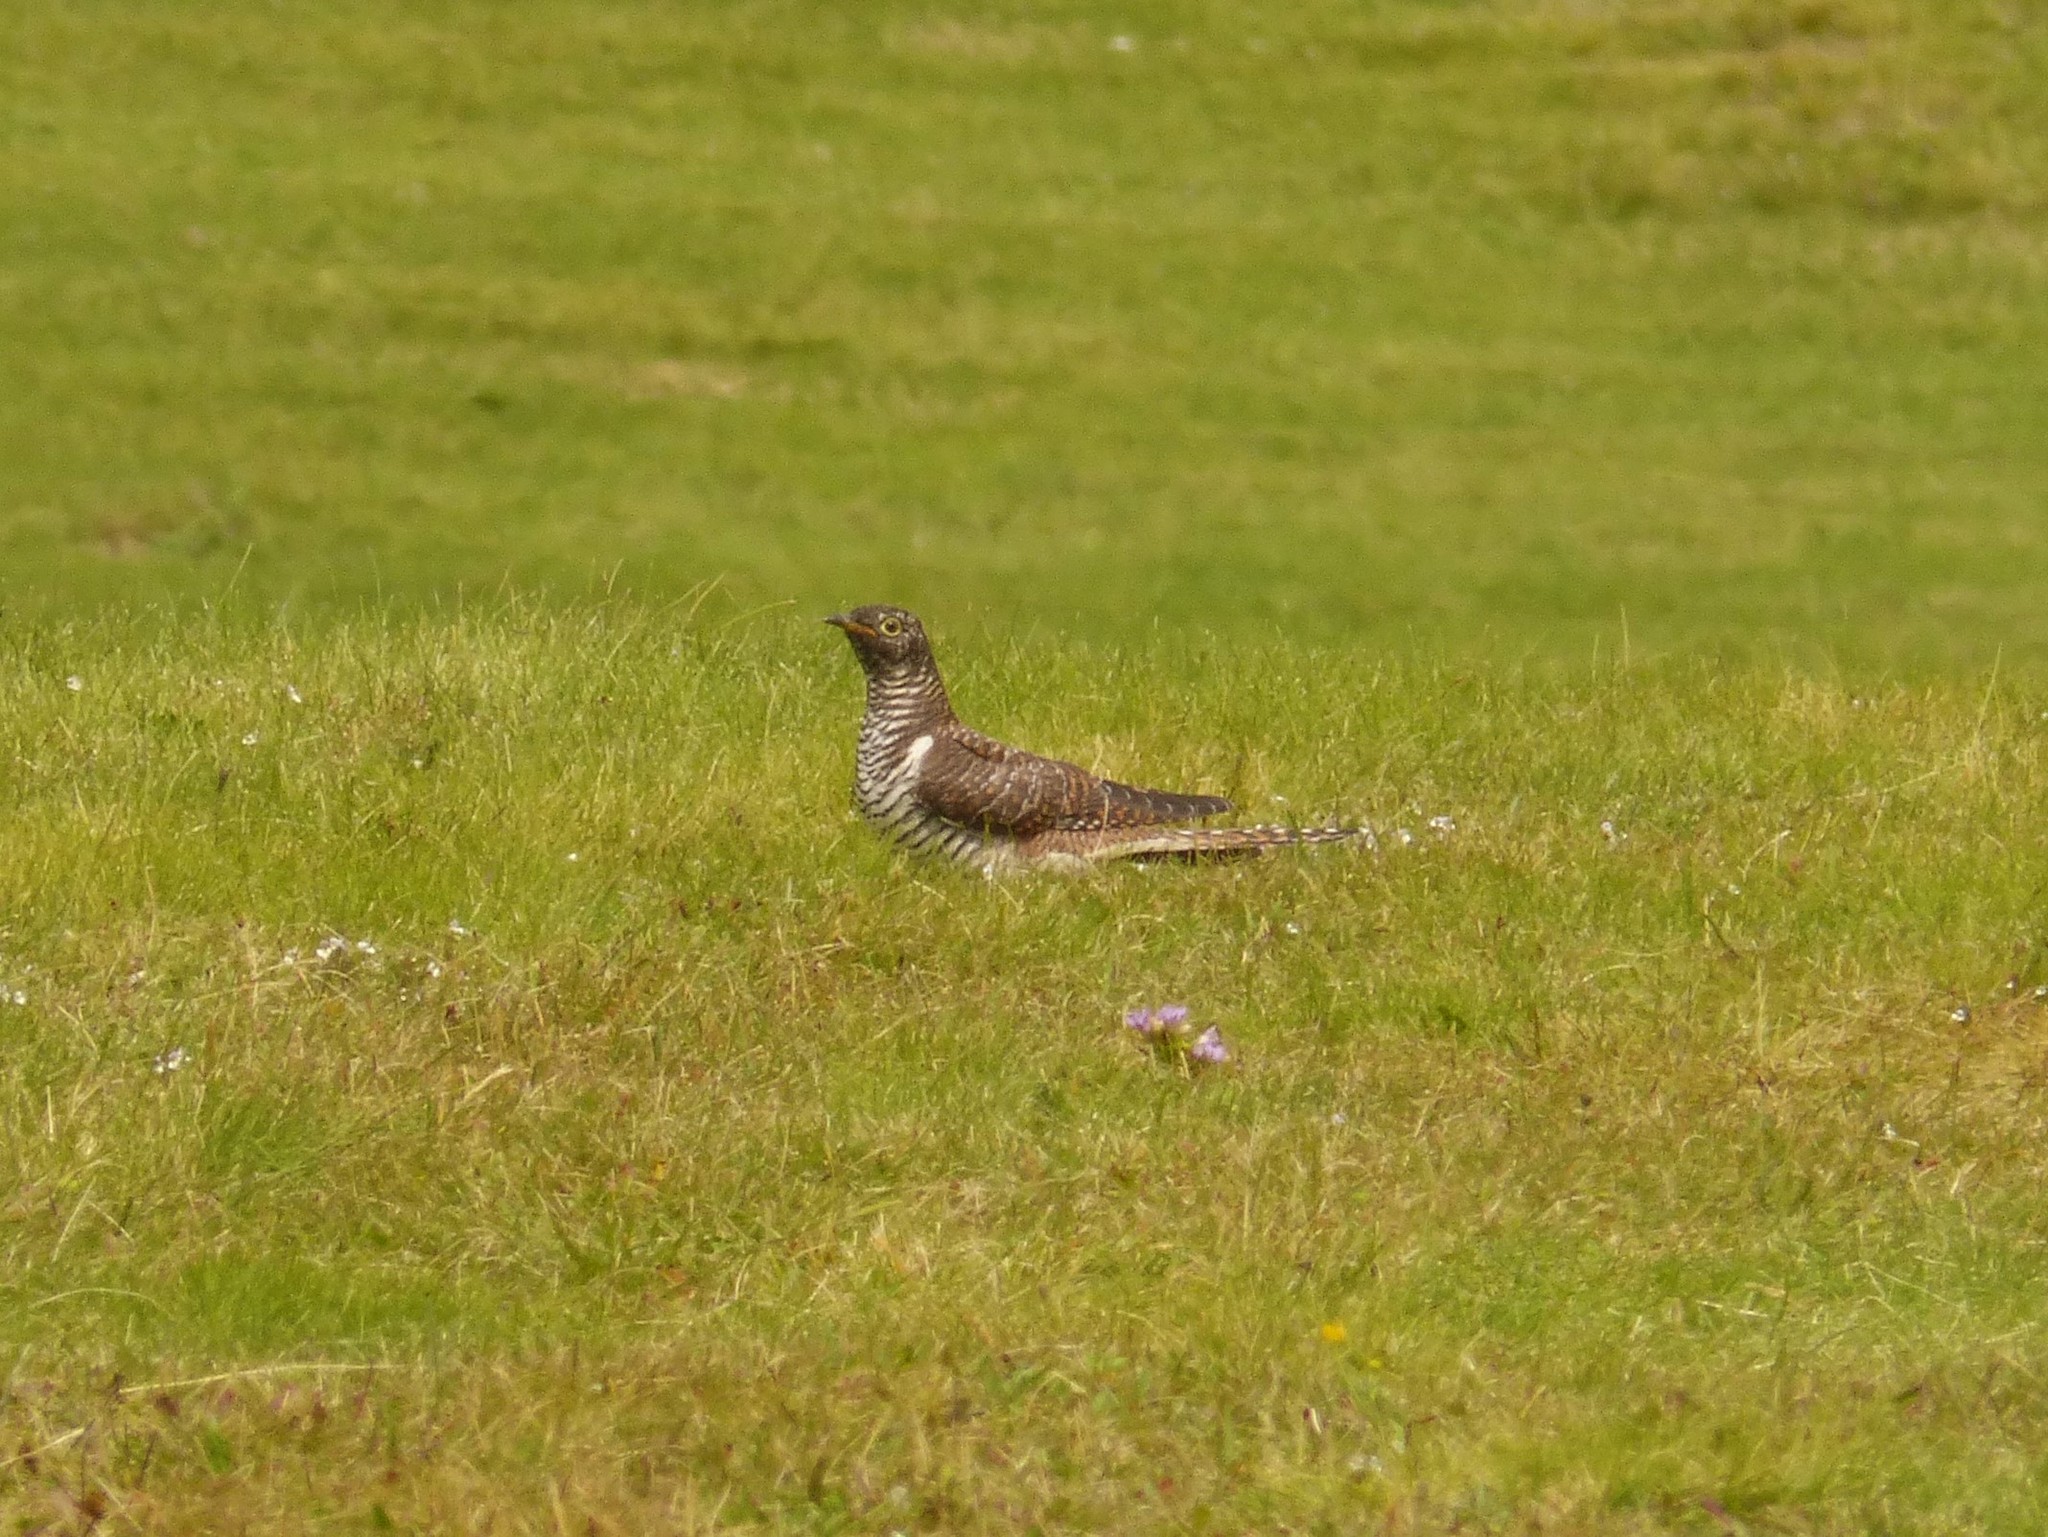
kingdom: Animalia
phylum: Chordata
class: Aves
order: Cuculiformes
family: Cuculidae
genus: Cuculus
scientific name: Cuculus canorus
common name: Common cuckoo
